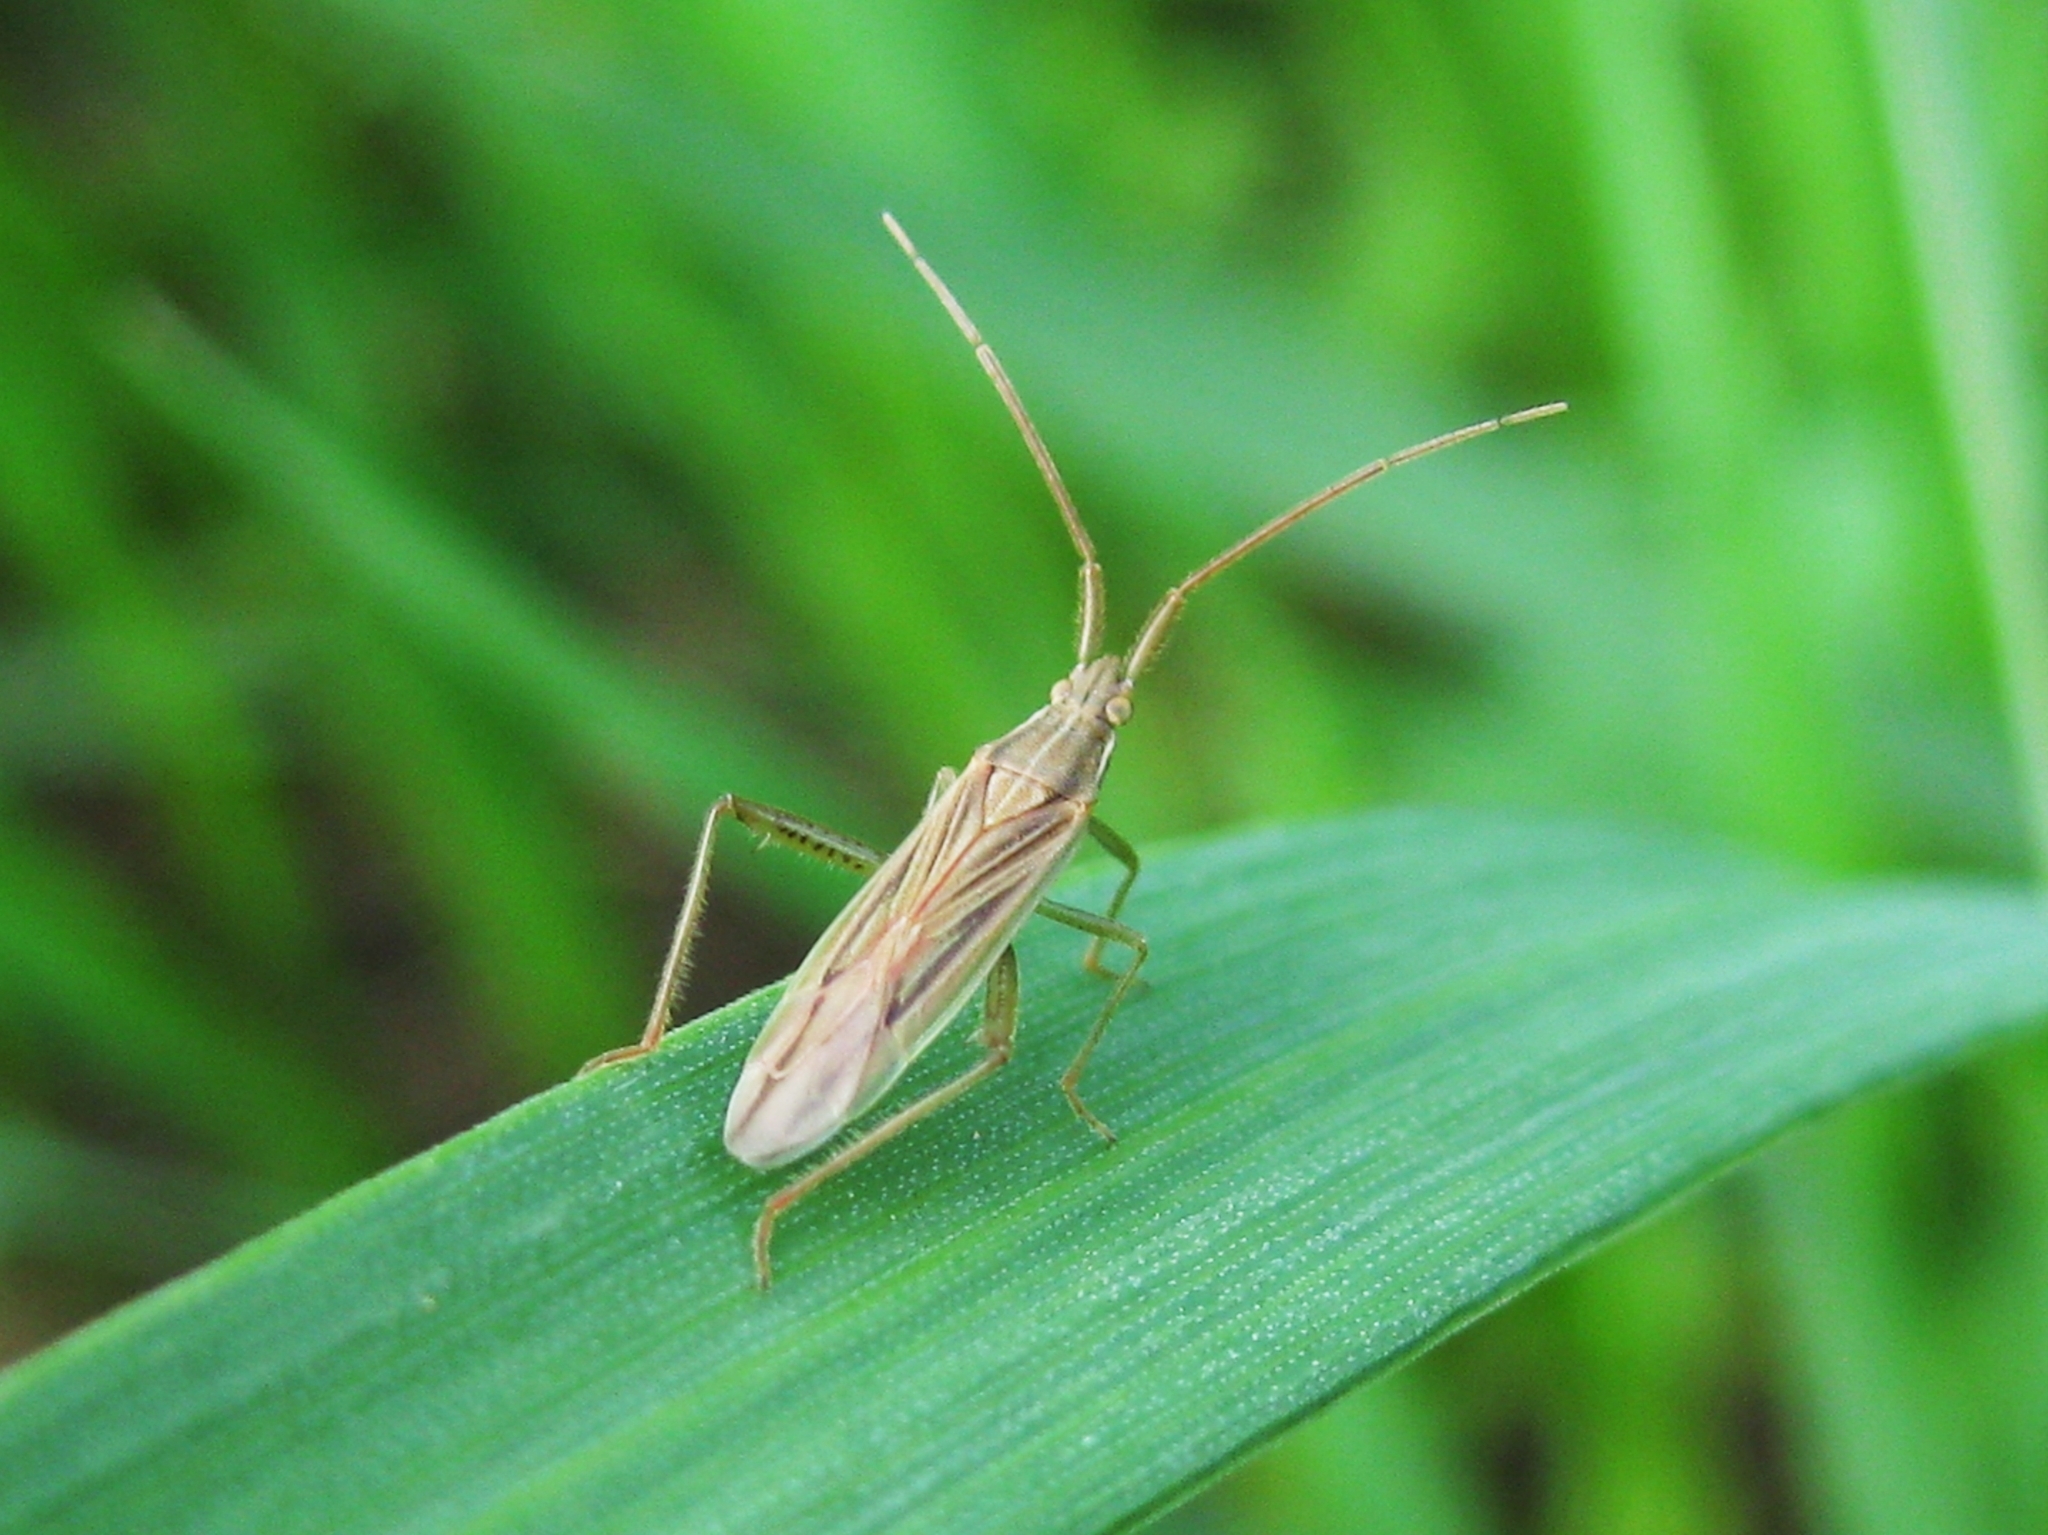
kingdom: Animalia
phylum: Arthropoda
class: Insecta
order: Hemiptera
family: Miridae
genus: Stenodema
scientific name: Stenodema calcarata
